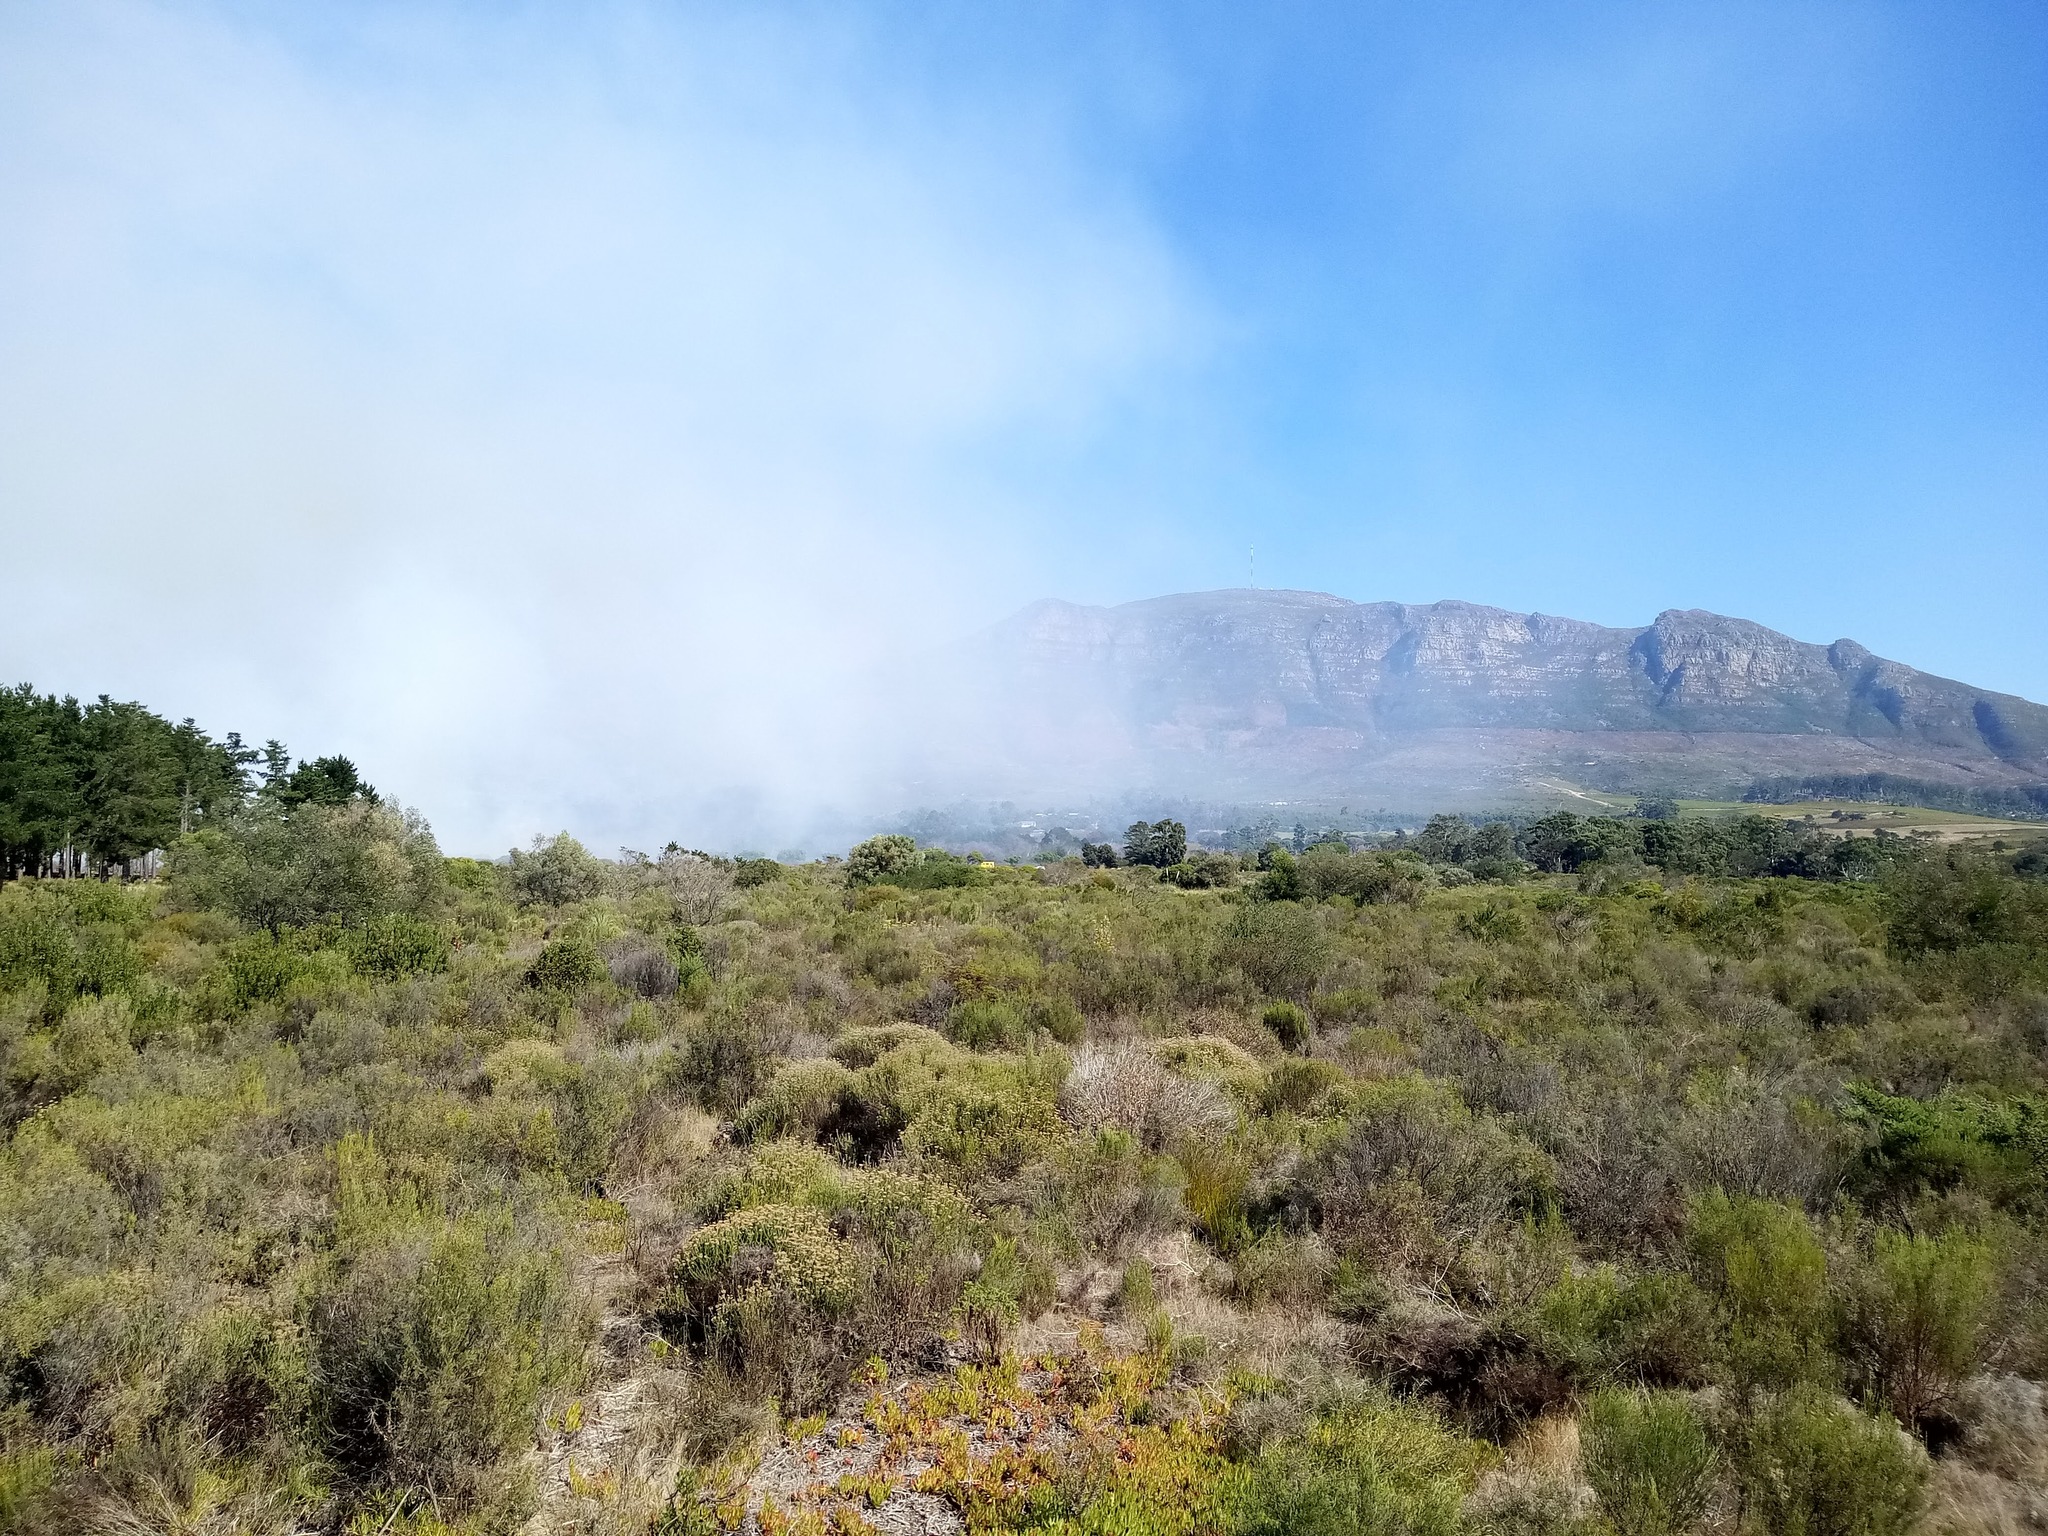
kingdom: Plantae
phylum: Tracheophyta
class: Magnoliopsida
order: Asterales
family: Asteraceae
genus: Metalasia
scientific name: Metalasia densa
